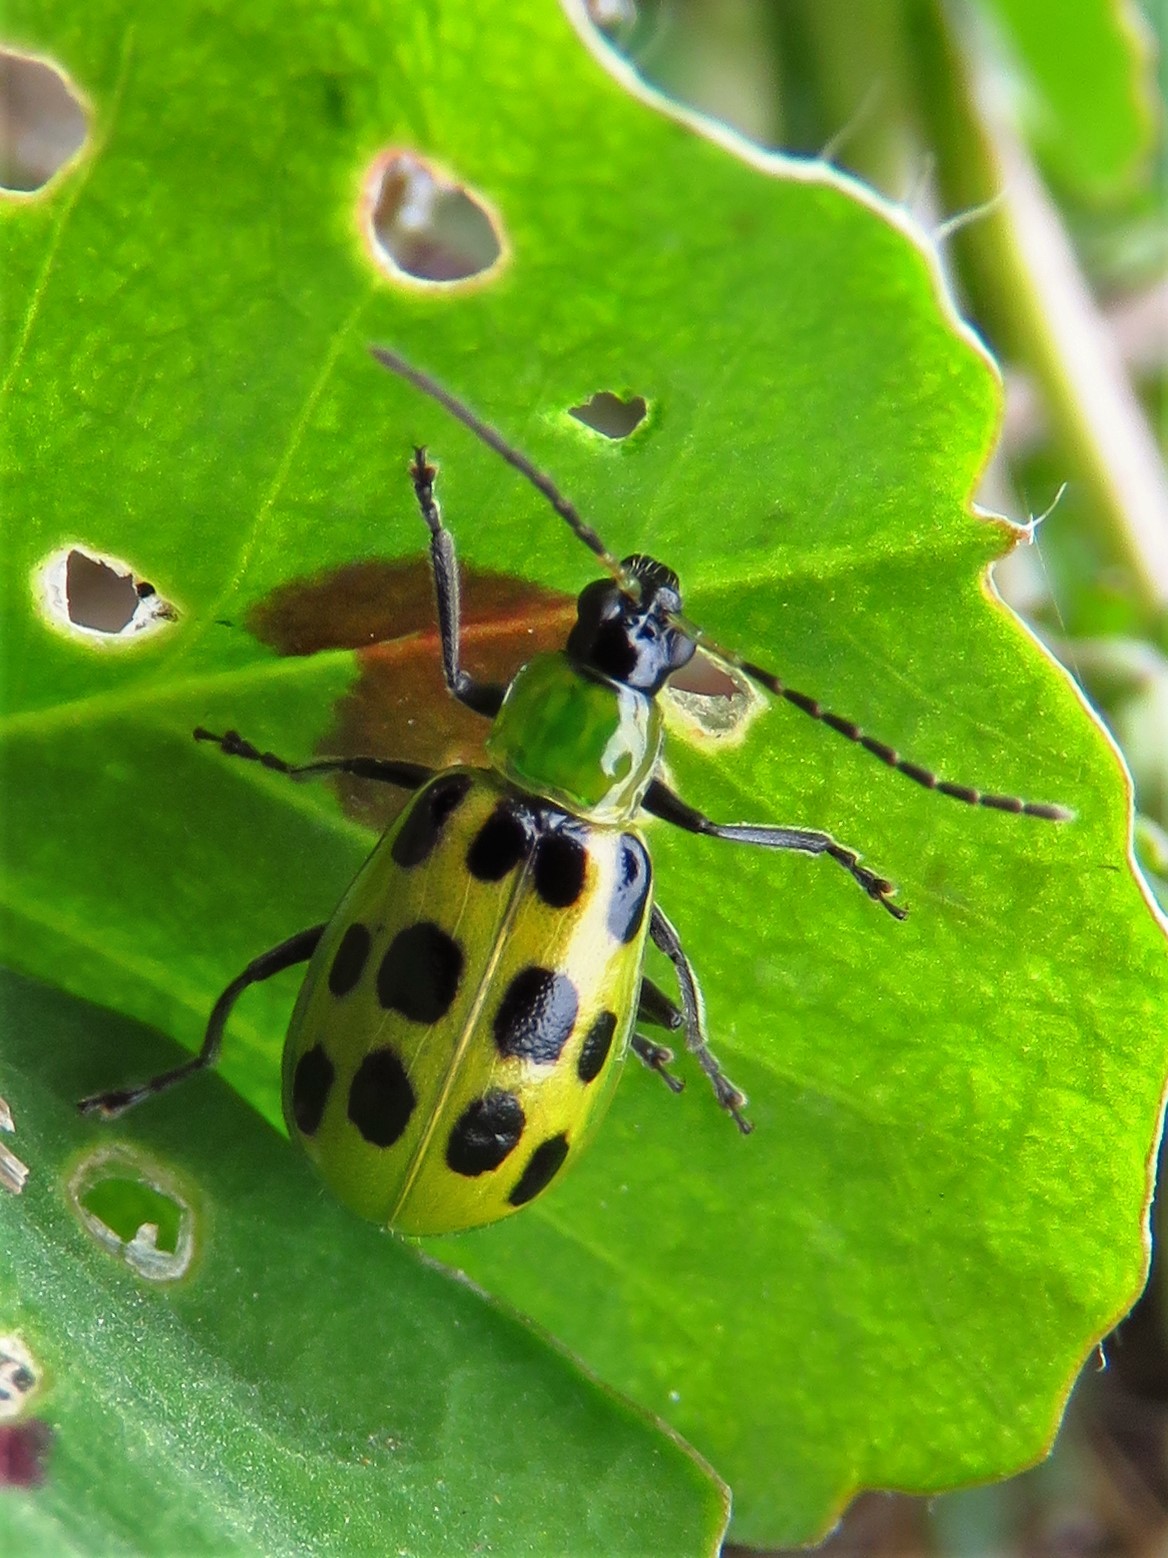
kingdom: Animalia
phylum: Arthropoda
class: Insecta
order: Coleoptera
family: Chrysomelidae
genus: Diabrotica
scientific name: Diabrotica undecimpunctata
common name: Spotted cucumber beetle
